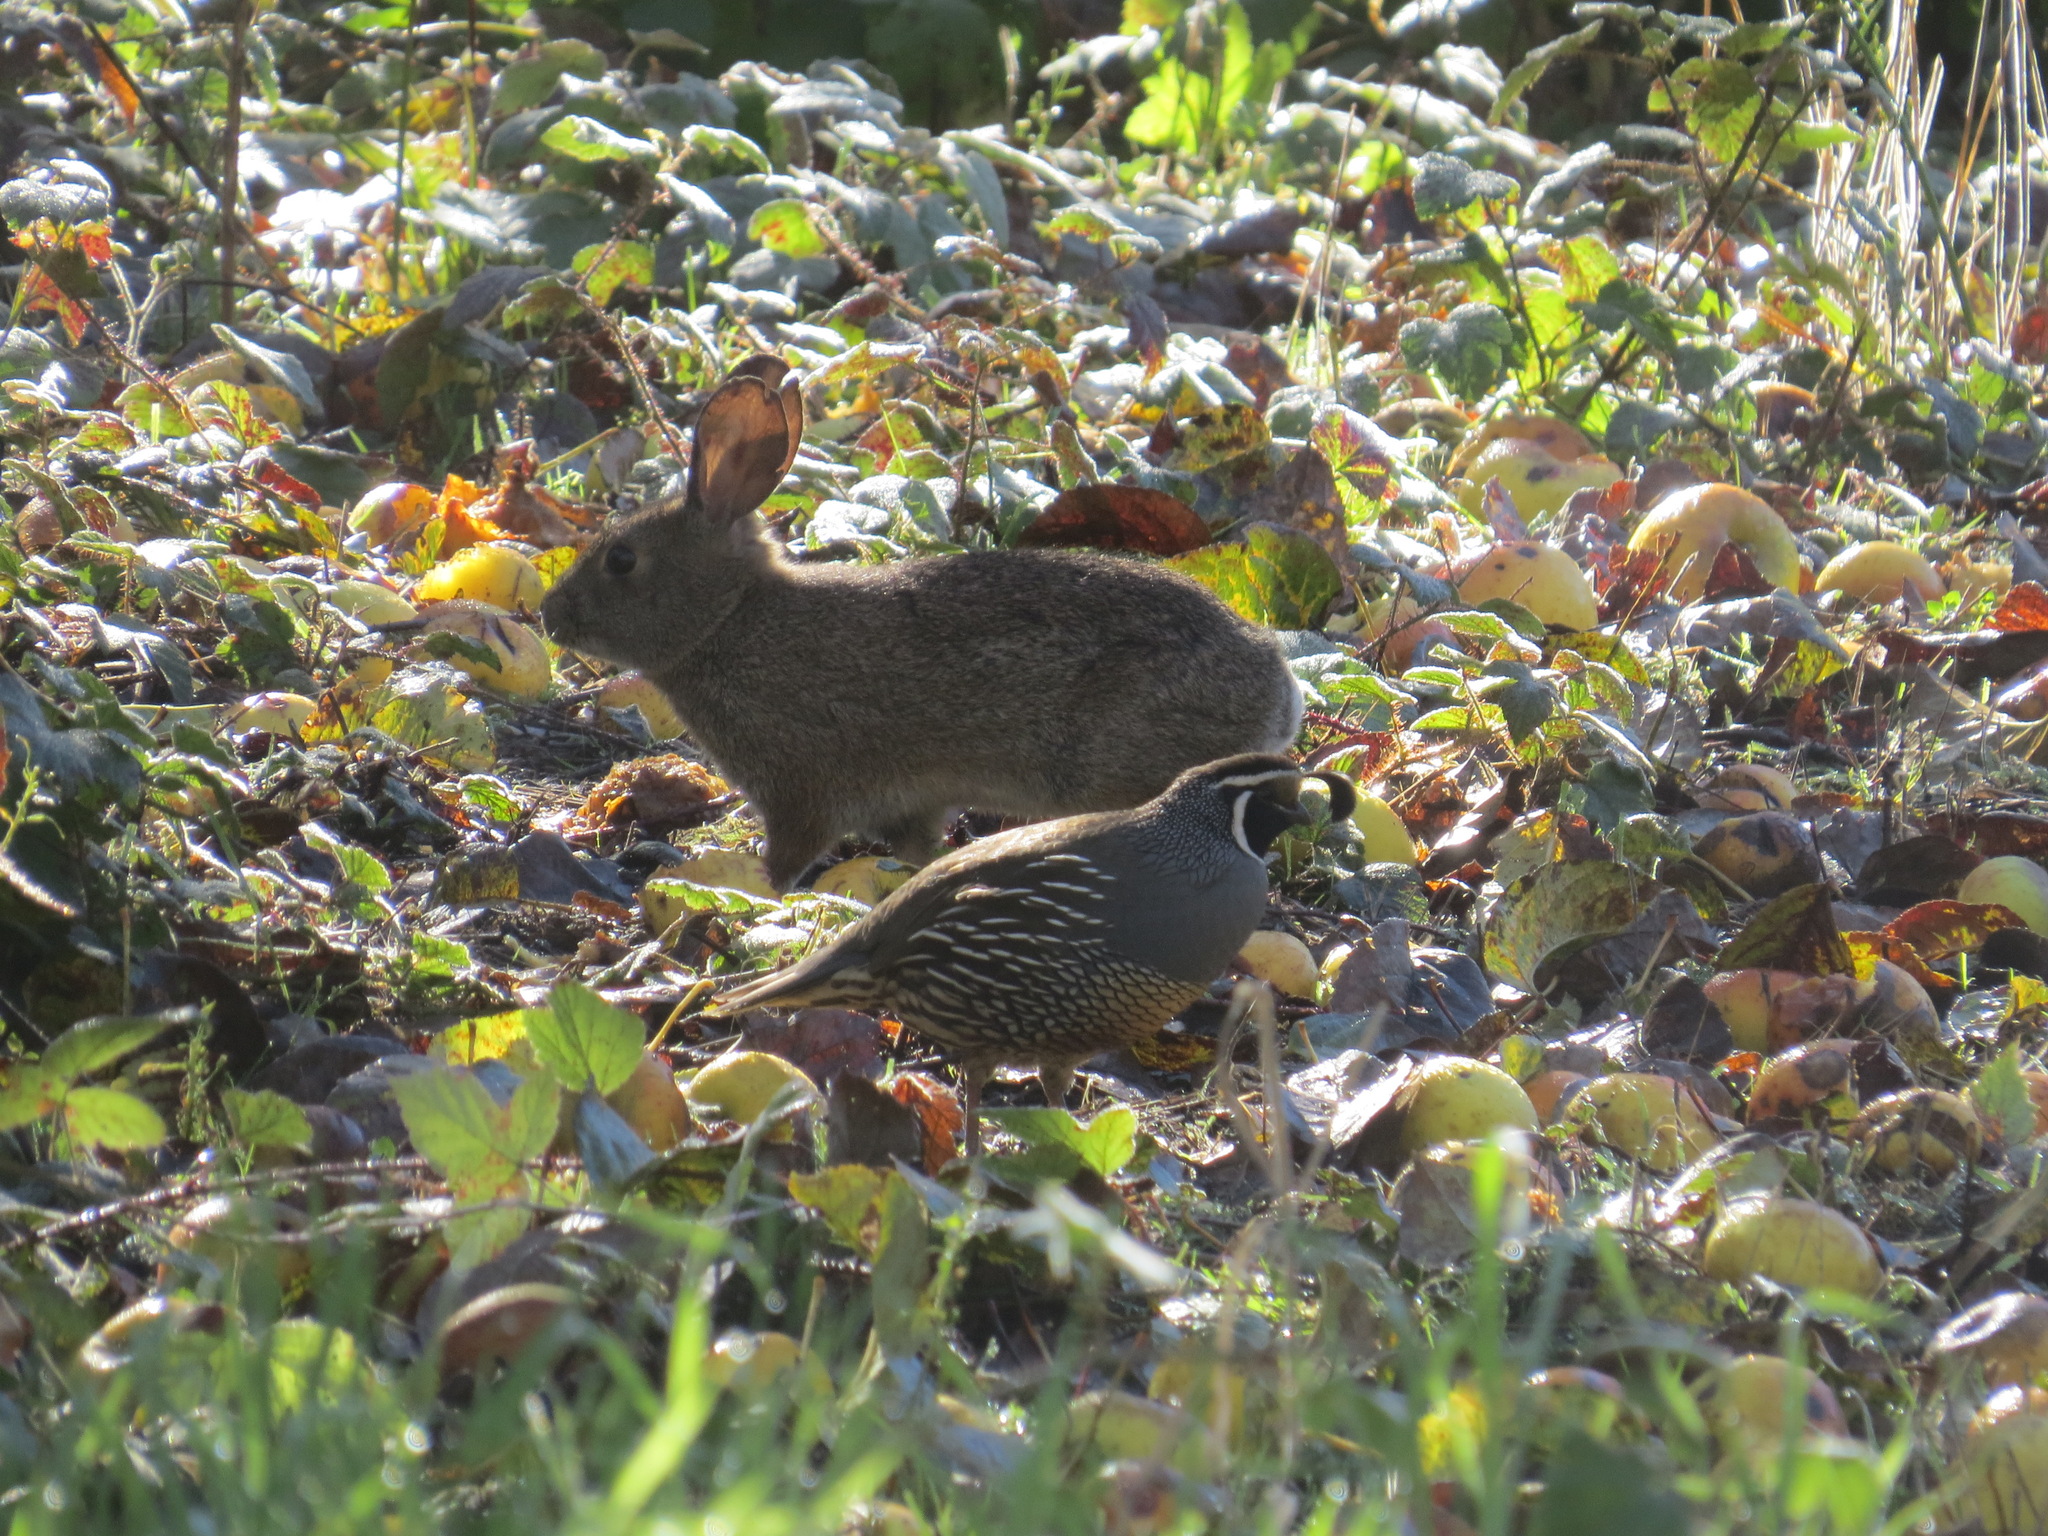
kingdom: Animalia
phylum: Chordata
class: Mammalia
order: Lagomorpha
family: Leporidae
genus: Sylvilagus
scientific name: Sylvilagus bachmani
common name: Brush rabbit
